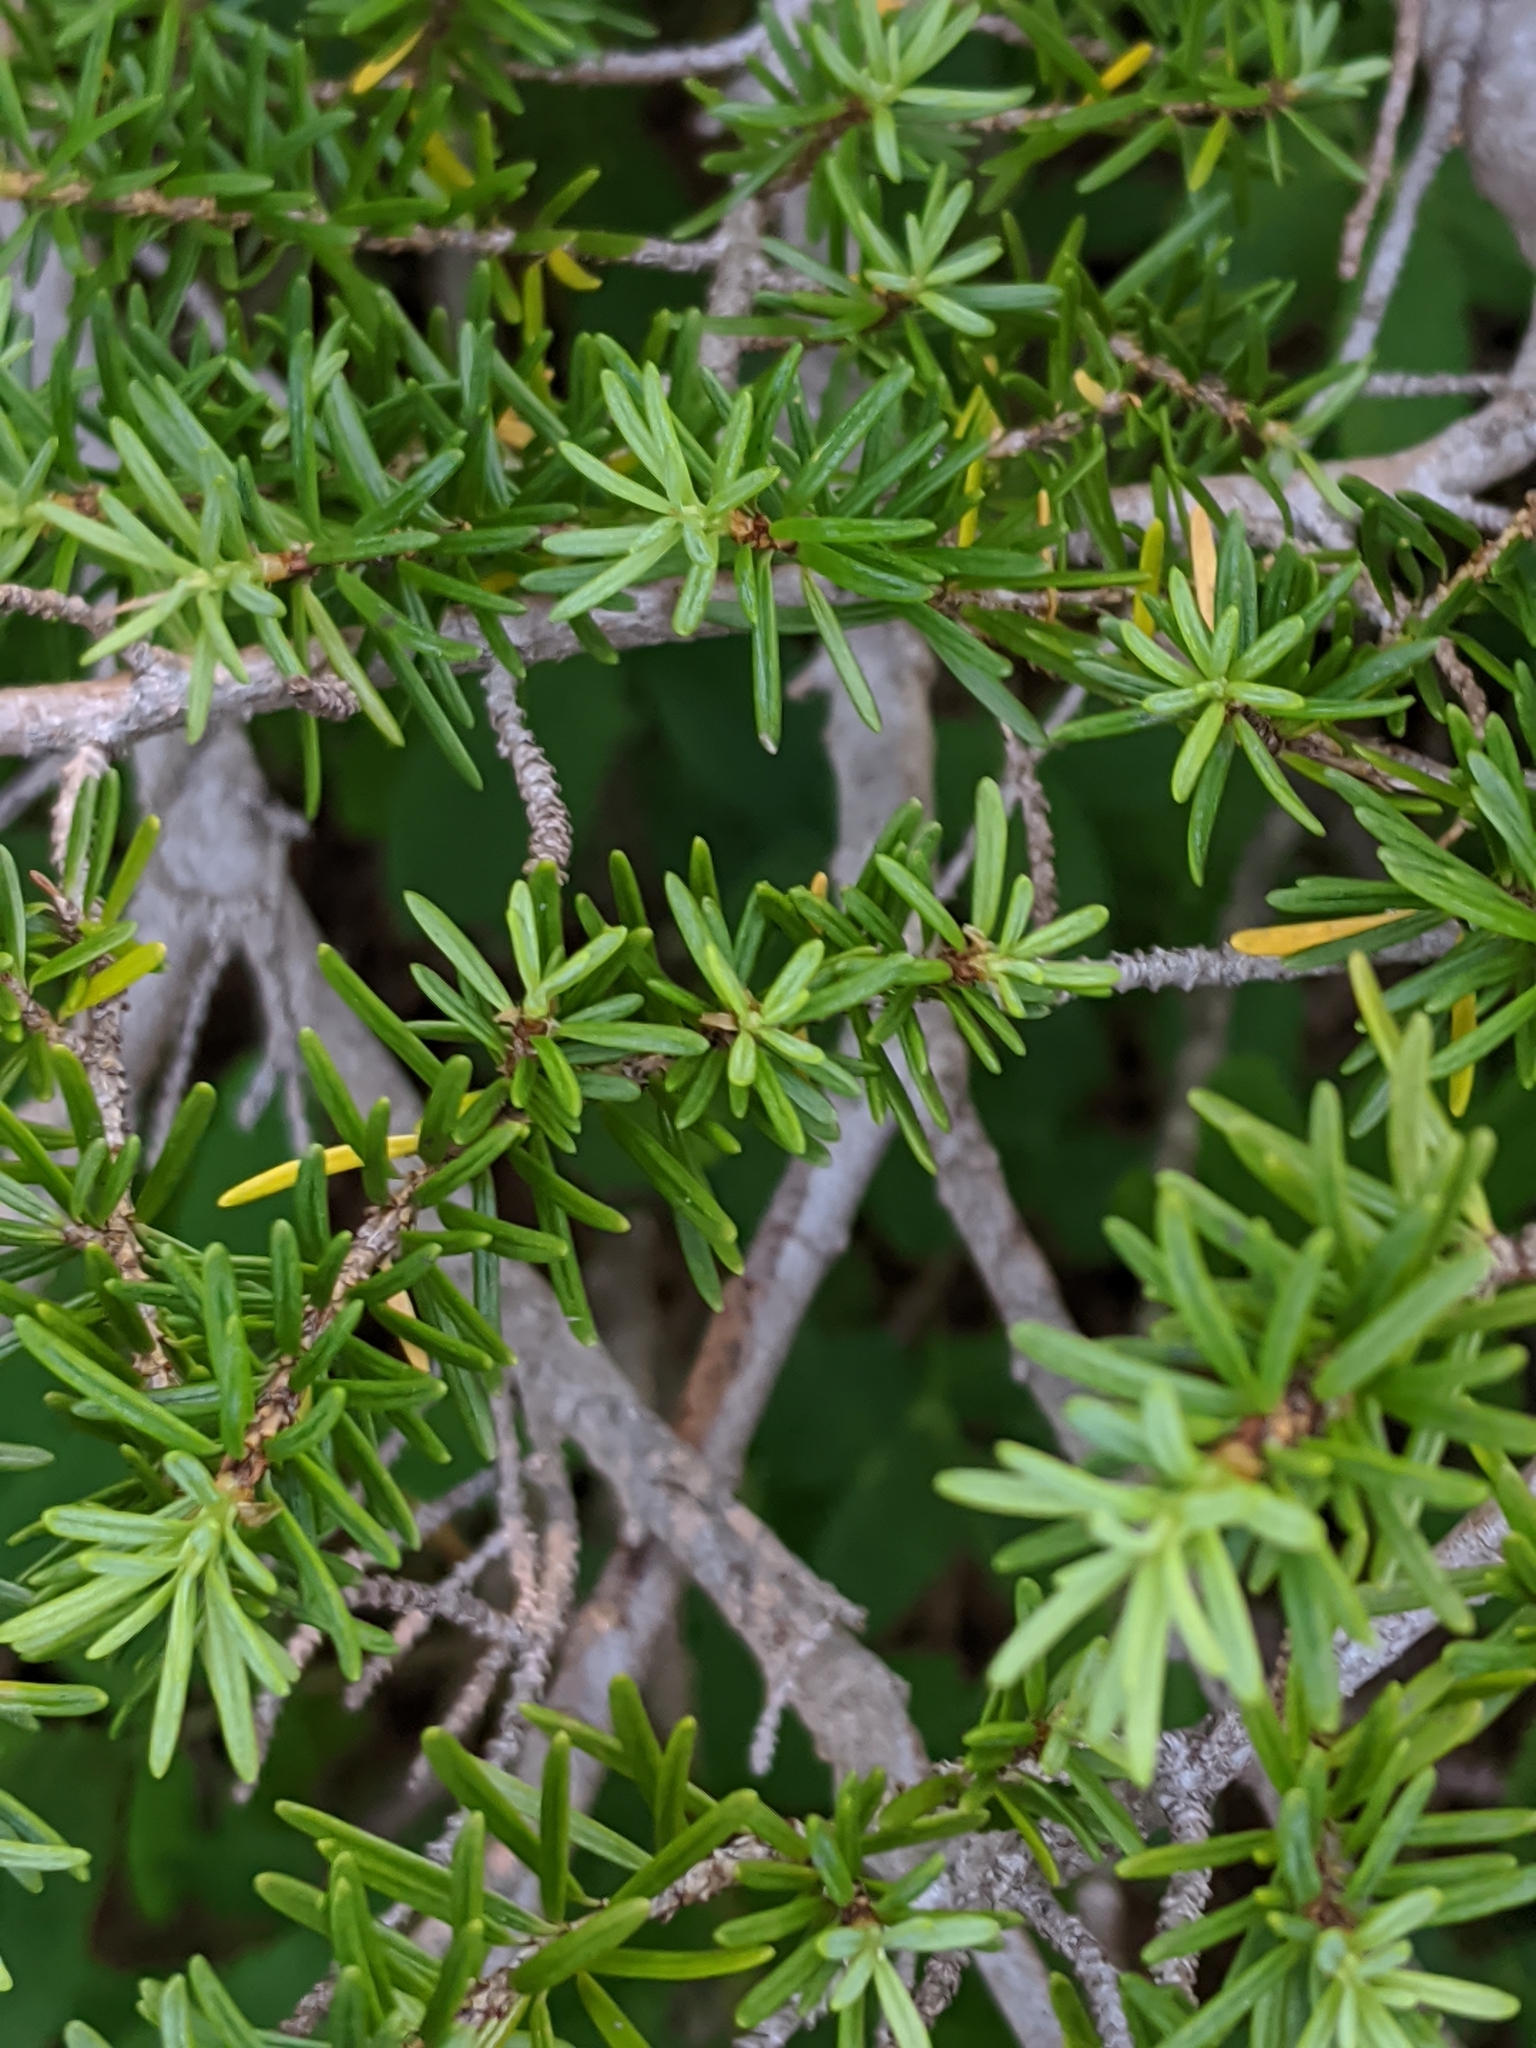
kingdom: Plantae
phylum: Tracheophyta
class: Pinopsida
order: Pinales
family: Pinaceae
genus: Tsuga
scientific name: Tsuga mertensiana
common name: Mountain hemlock
